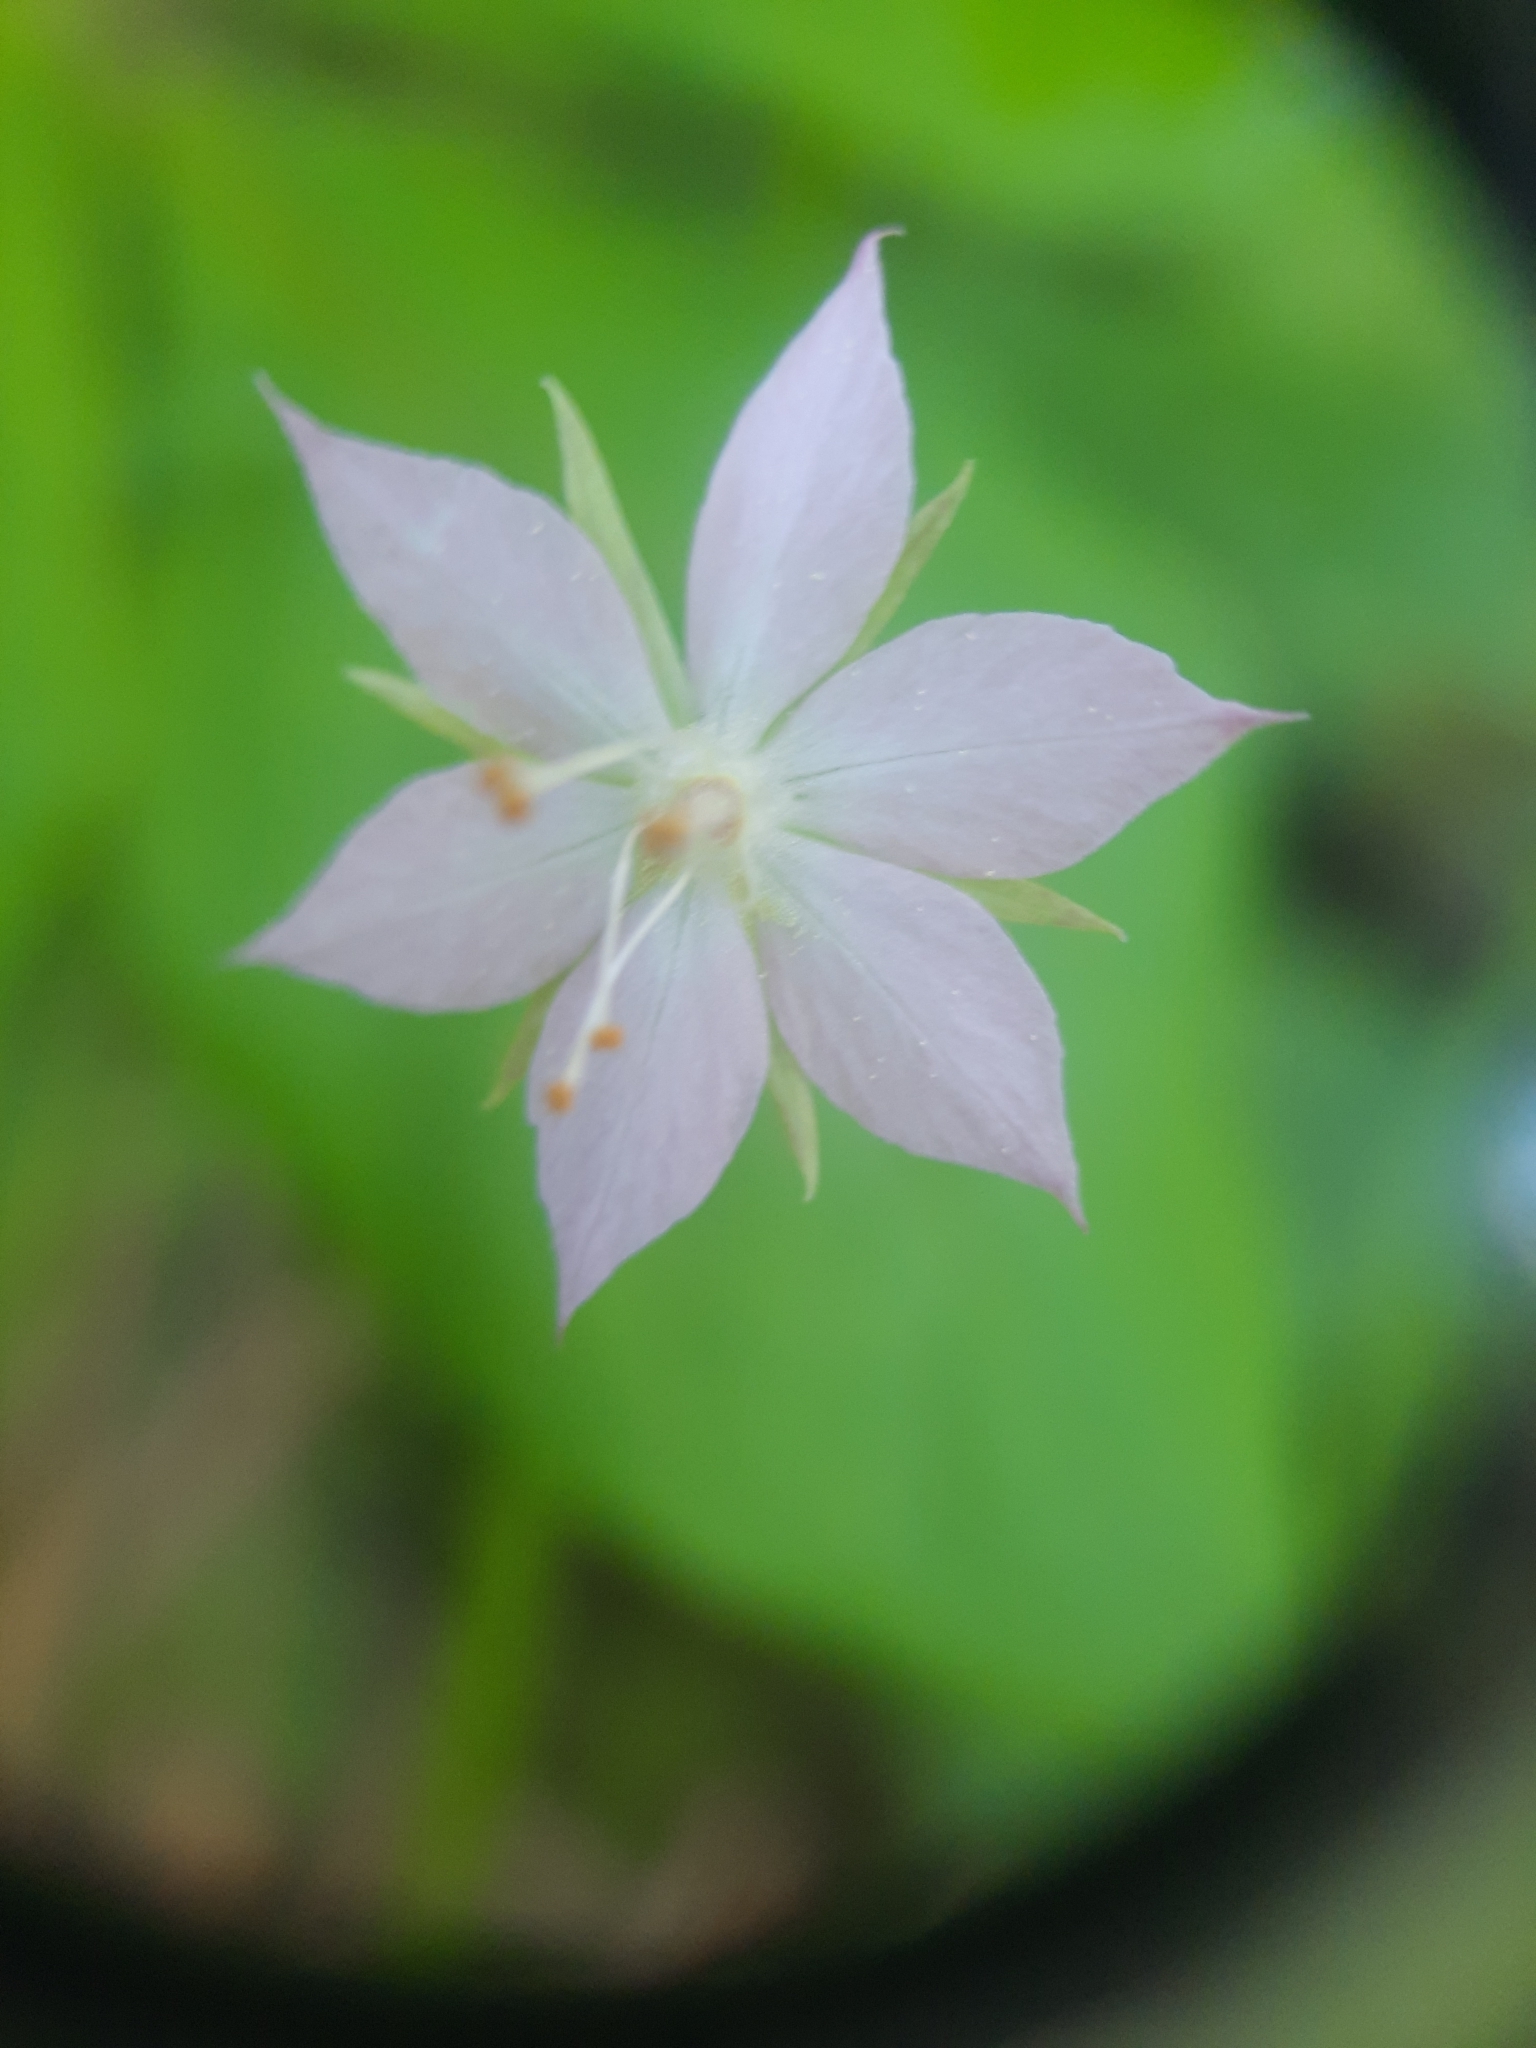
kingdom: Plantae
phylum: Tracheophyta
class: Magnoliopsida
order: Ericales
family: Primulaceae
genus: Lysimachia
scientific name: Lysimachia latifolia
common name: Pacific starflower
